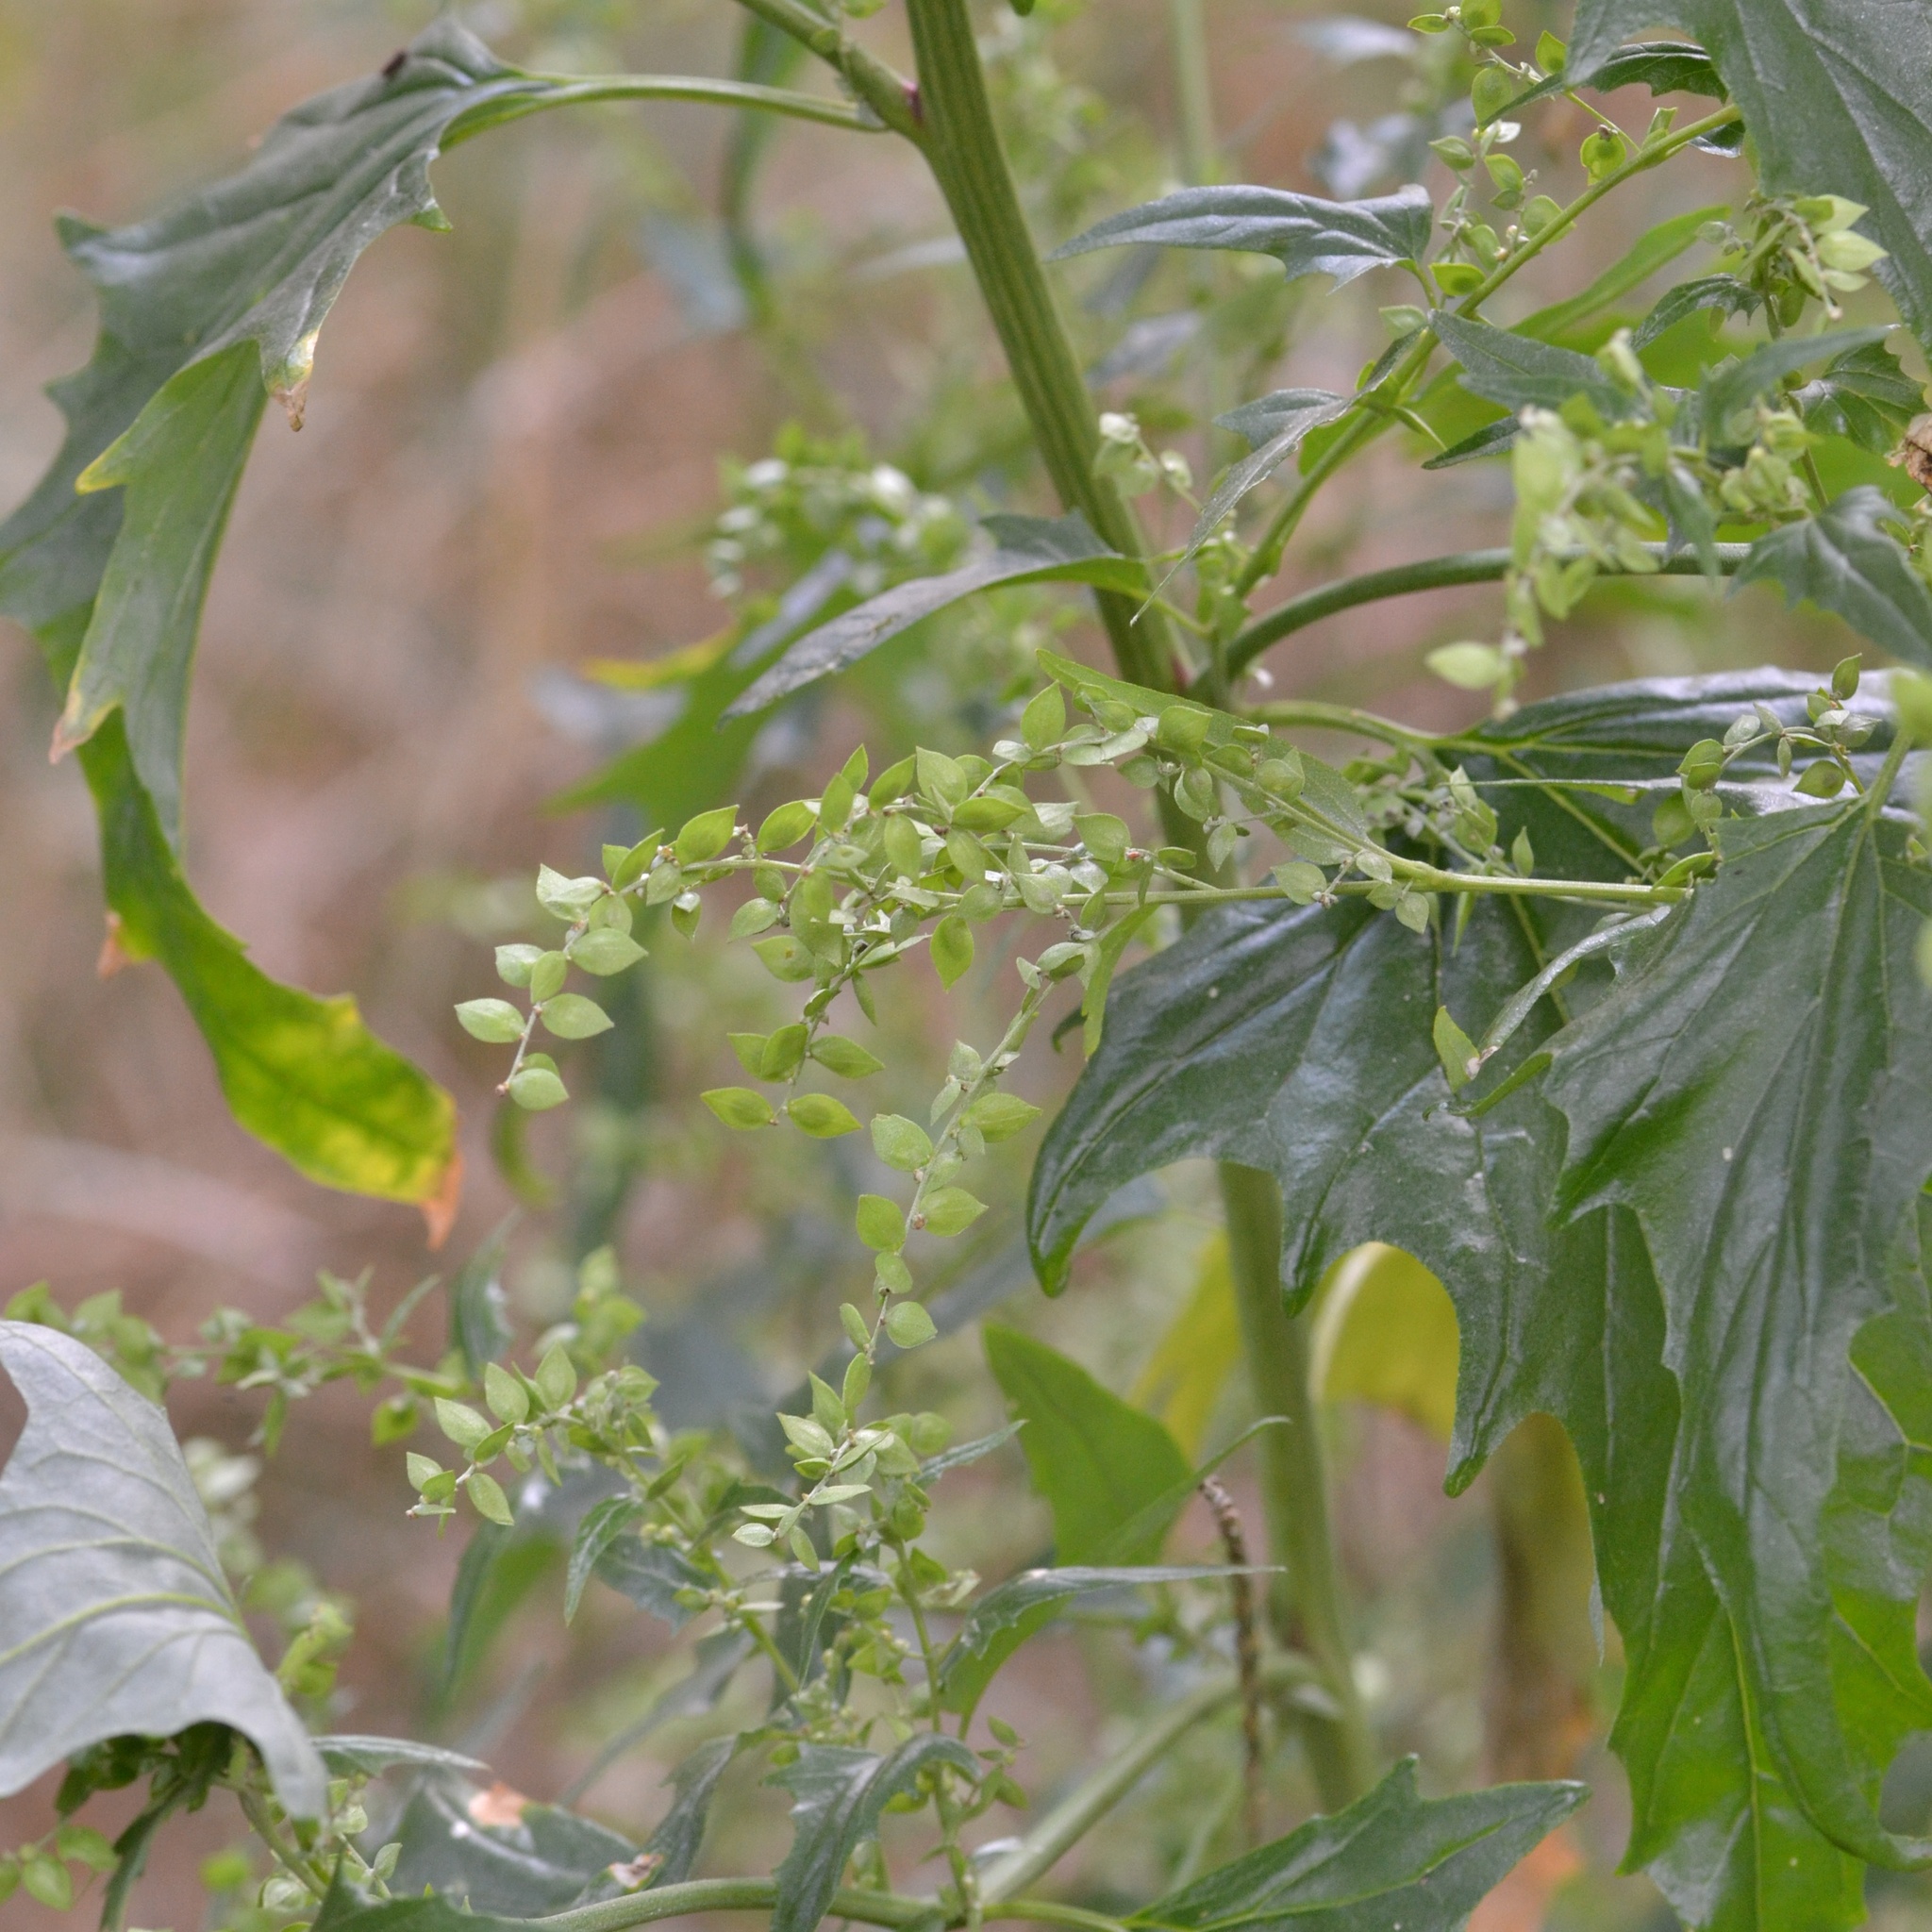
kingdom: Plantae
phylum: Tracheophyta
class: Magnoliopsida
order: Caryophyllales
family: Amaranthaceae
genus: Atriplex
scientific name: Atriplex sagittata
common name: Purple orache
